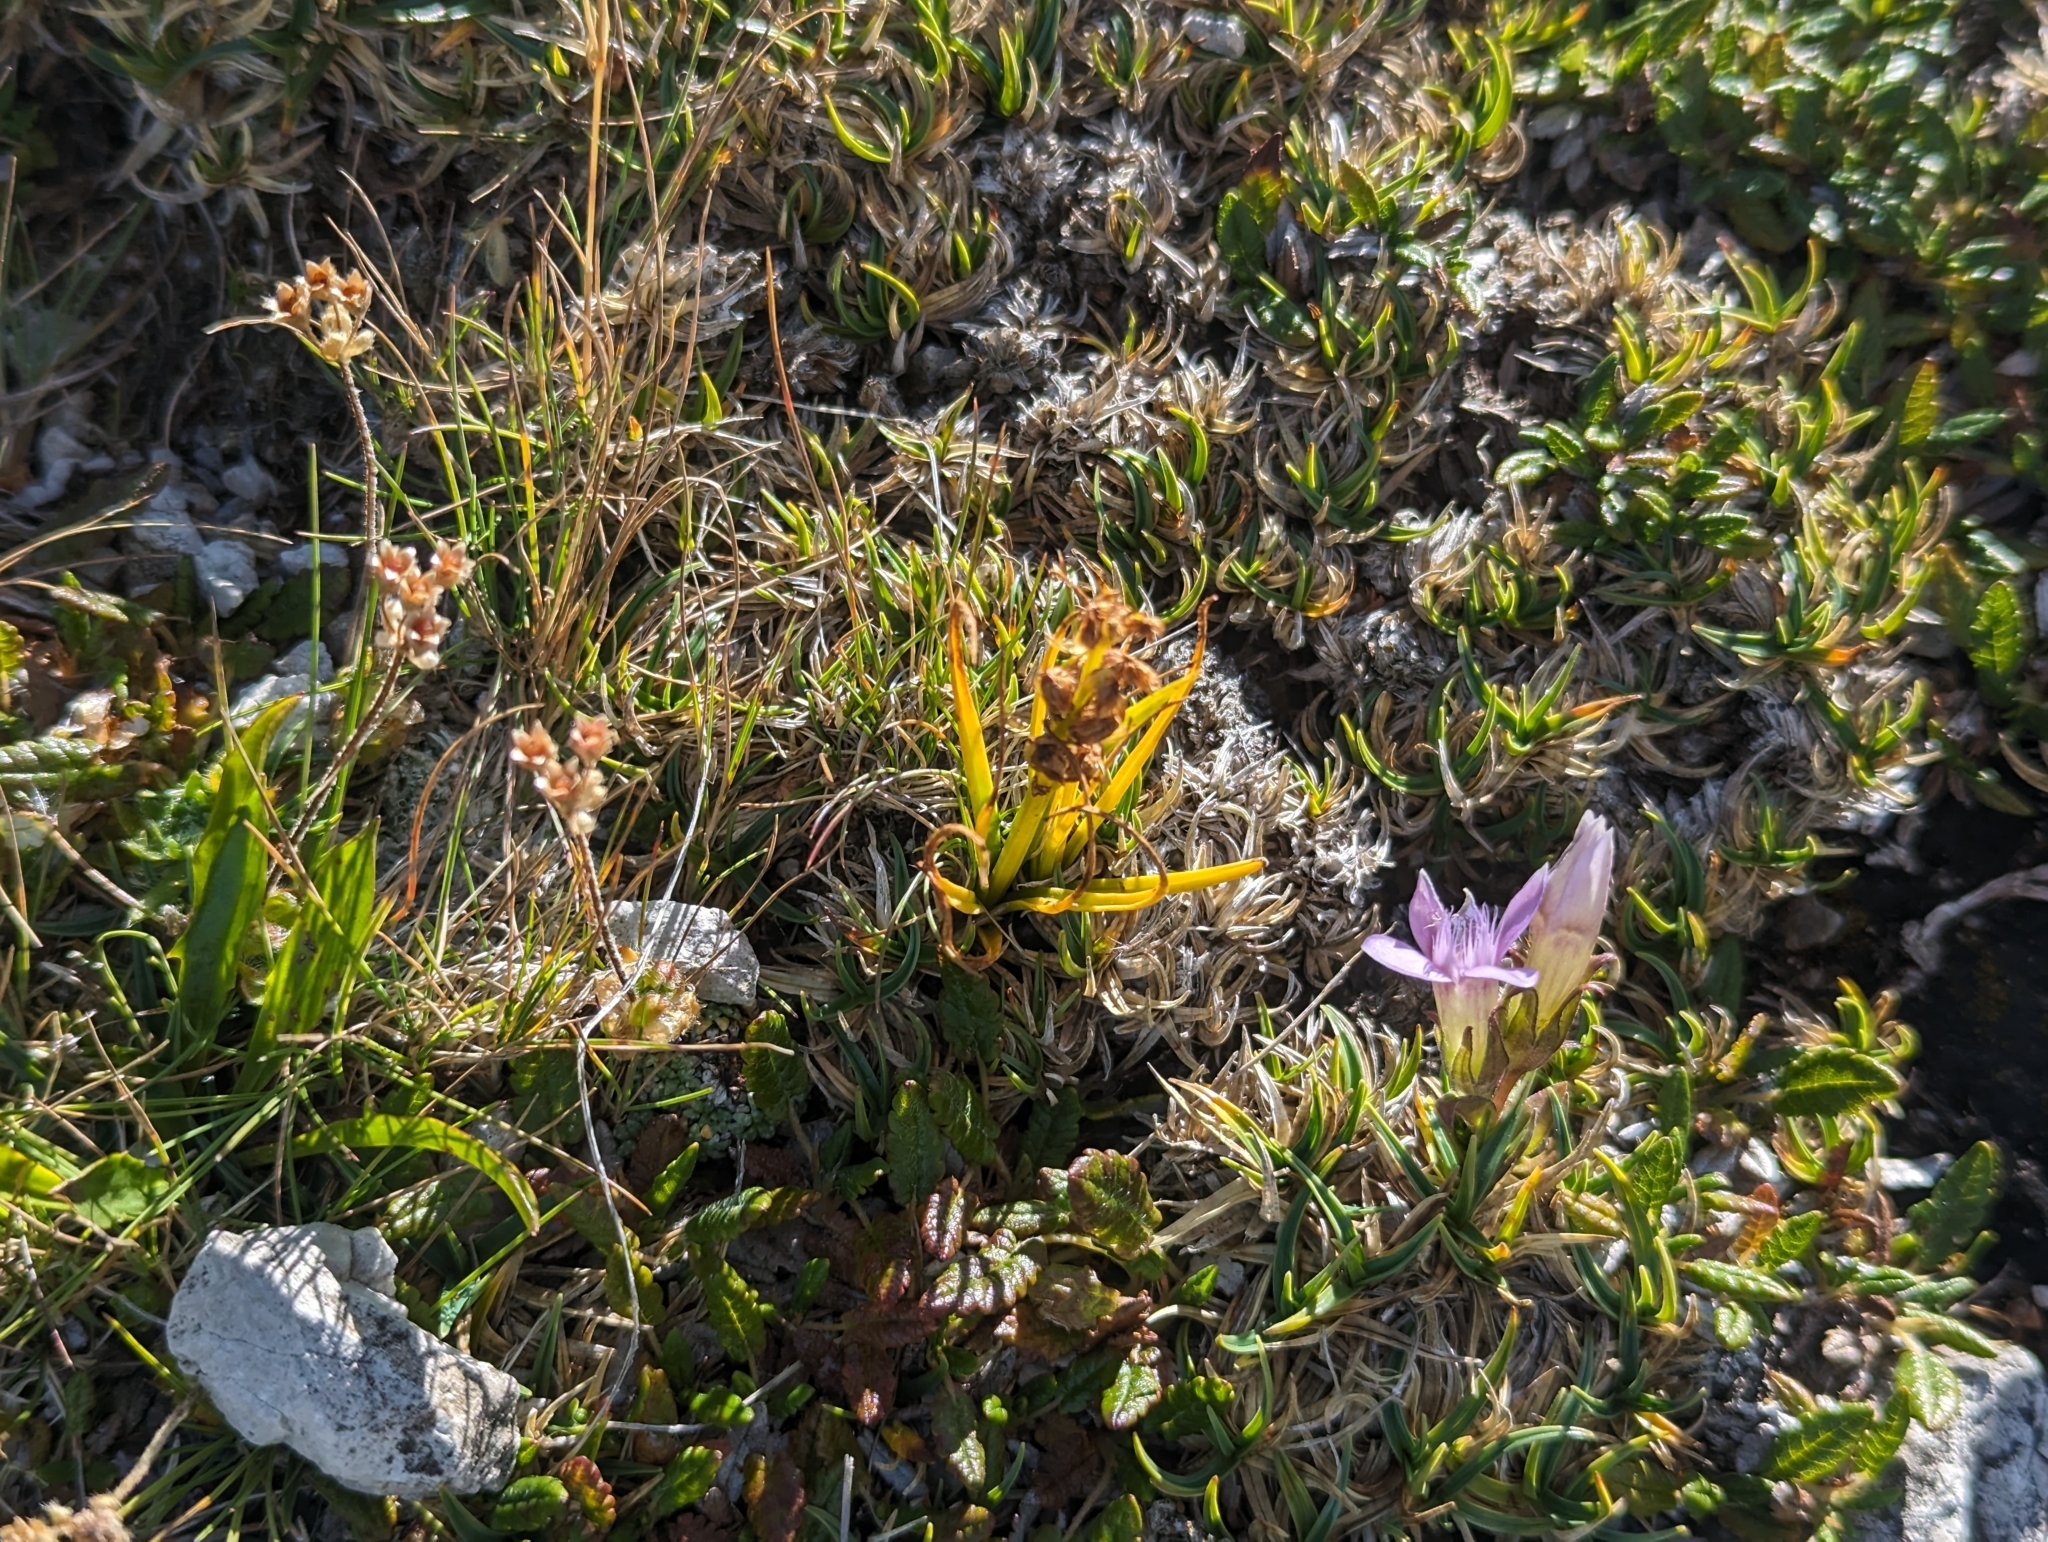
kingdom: Plantae
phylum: Tracheophyta
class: Liliopsida
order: Asparagales
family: Orchidaceae
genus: Chamorchis
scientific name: Chamorchis alpina
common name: Alpine chamorchis
